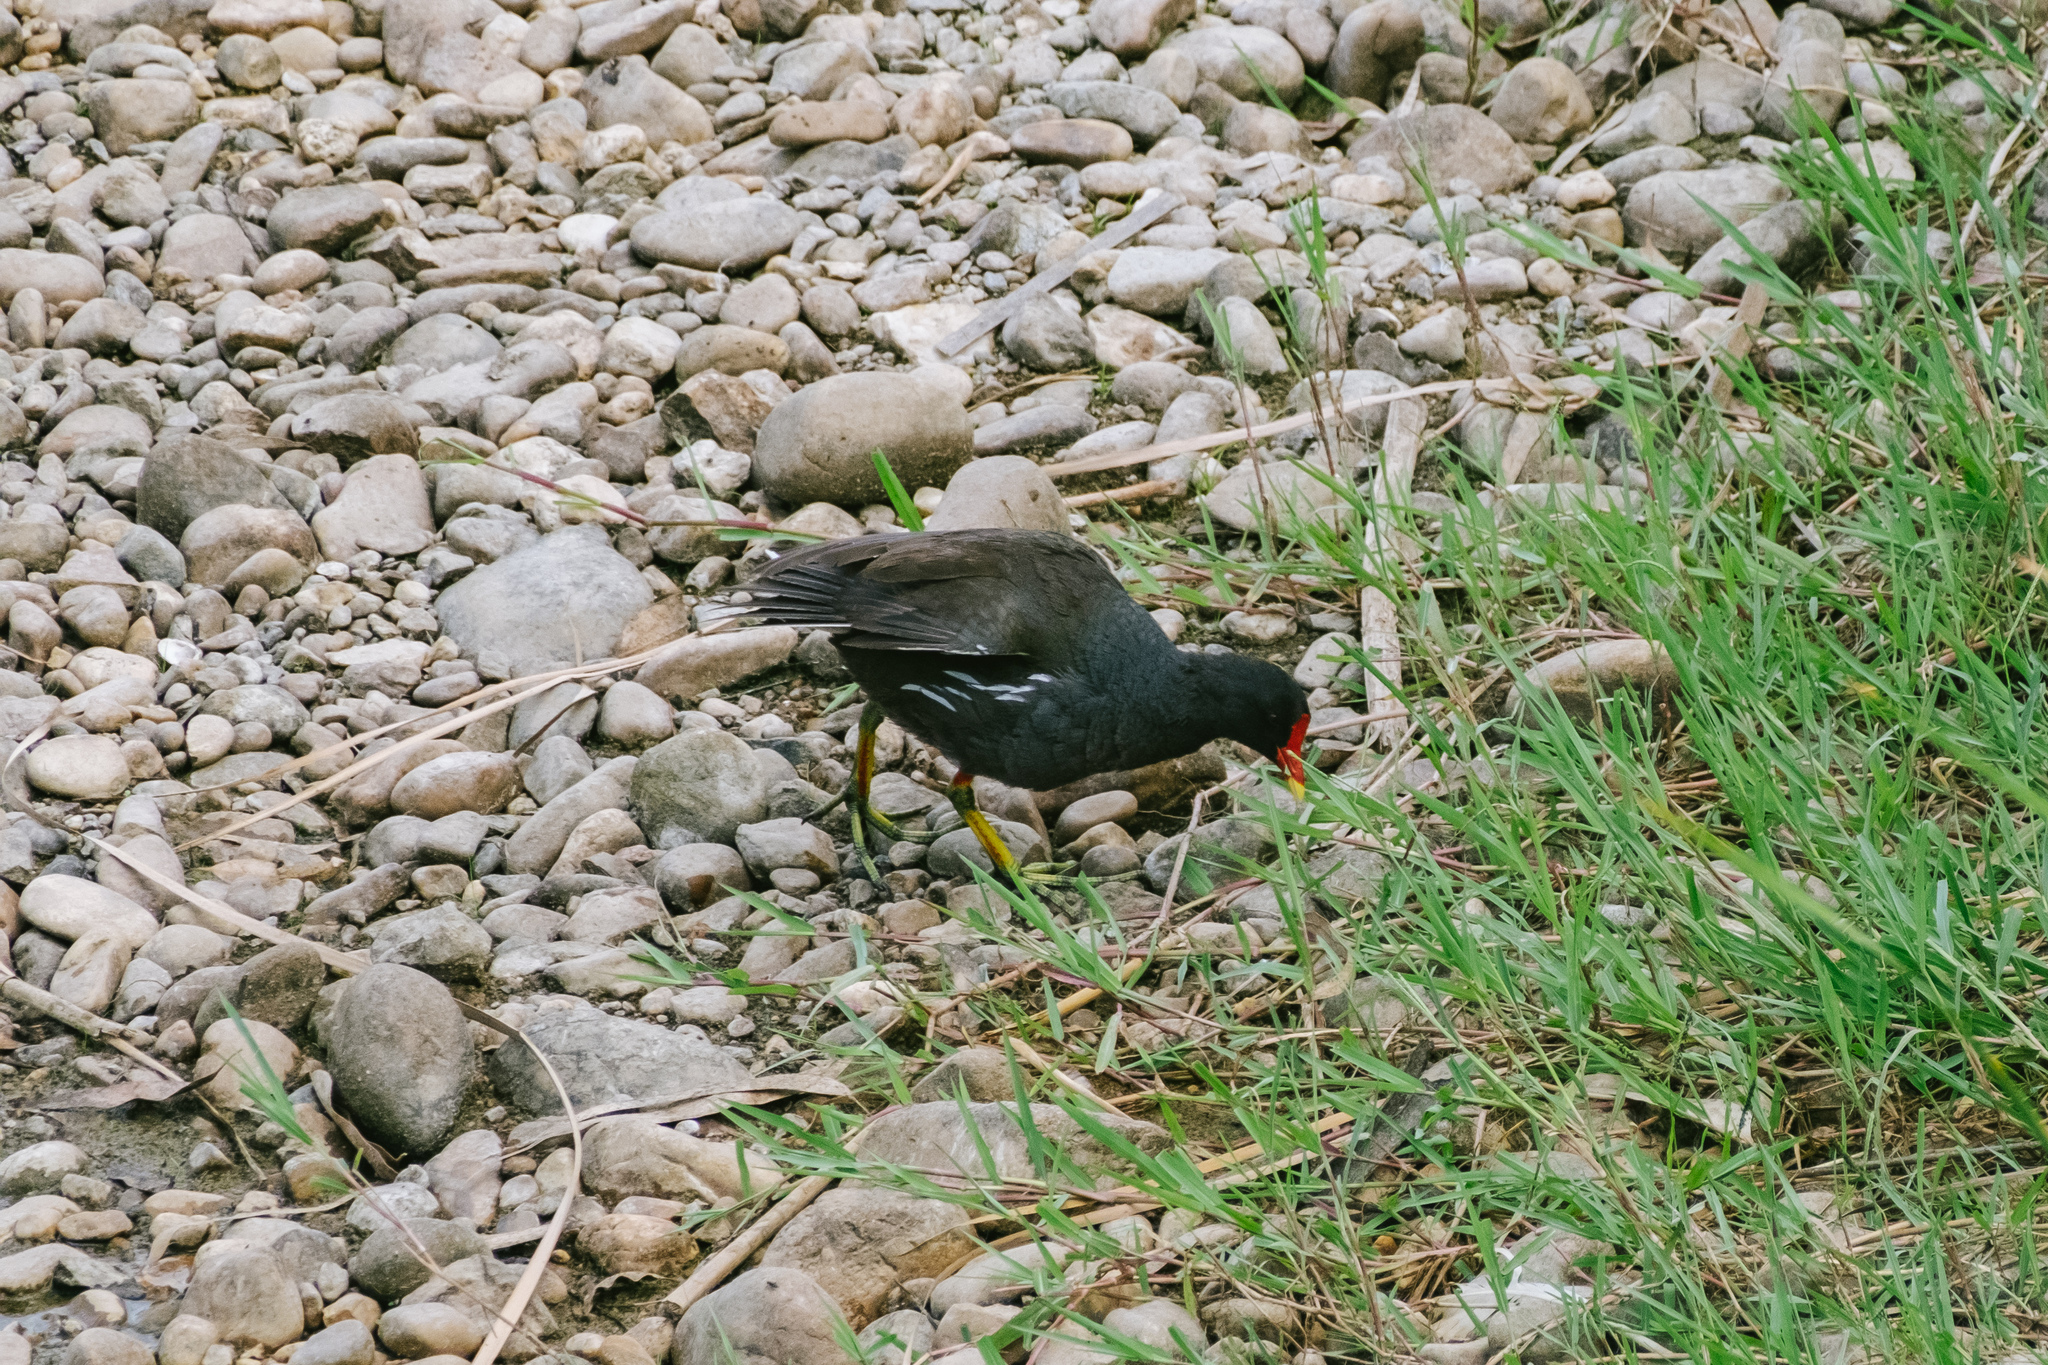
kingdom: Animalia
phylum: Chordata
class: Aves
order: Gruiformes
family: Rallidae
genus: Gallinula
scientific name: Gallinula chloropus
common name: Common moorhen
